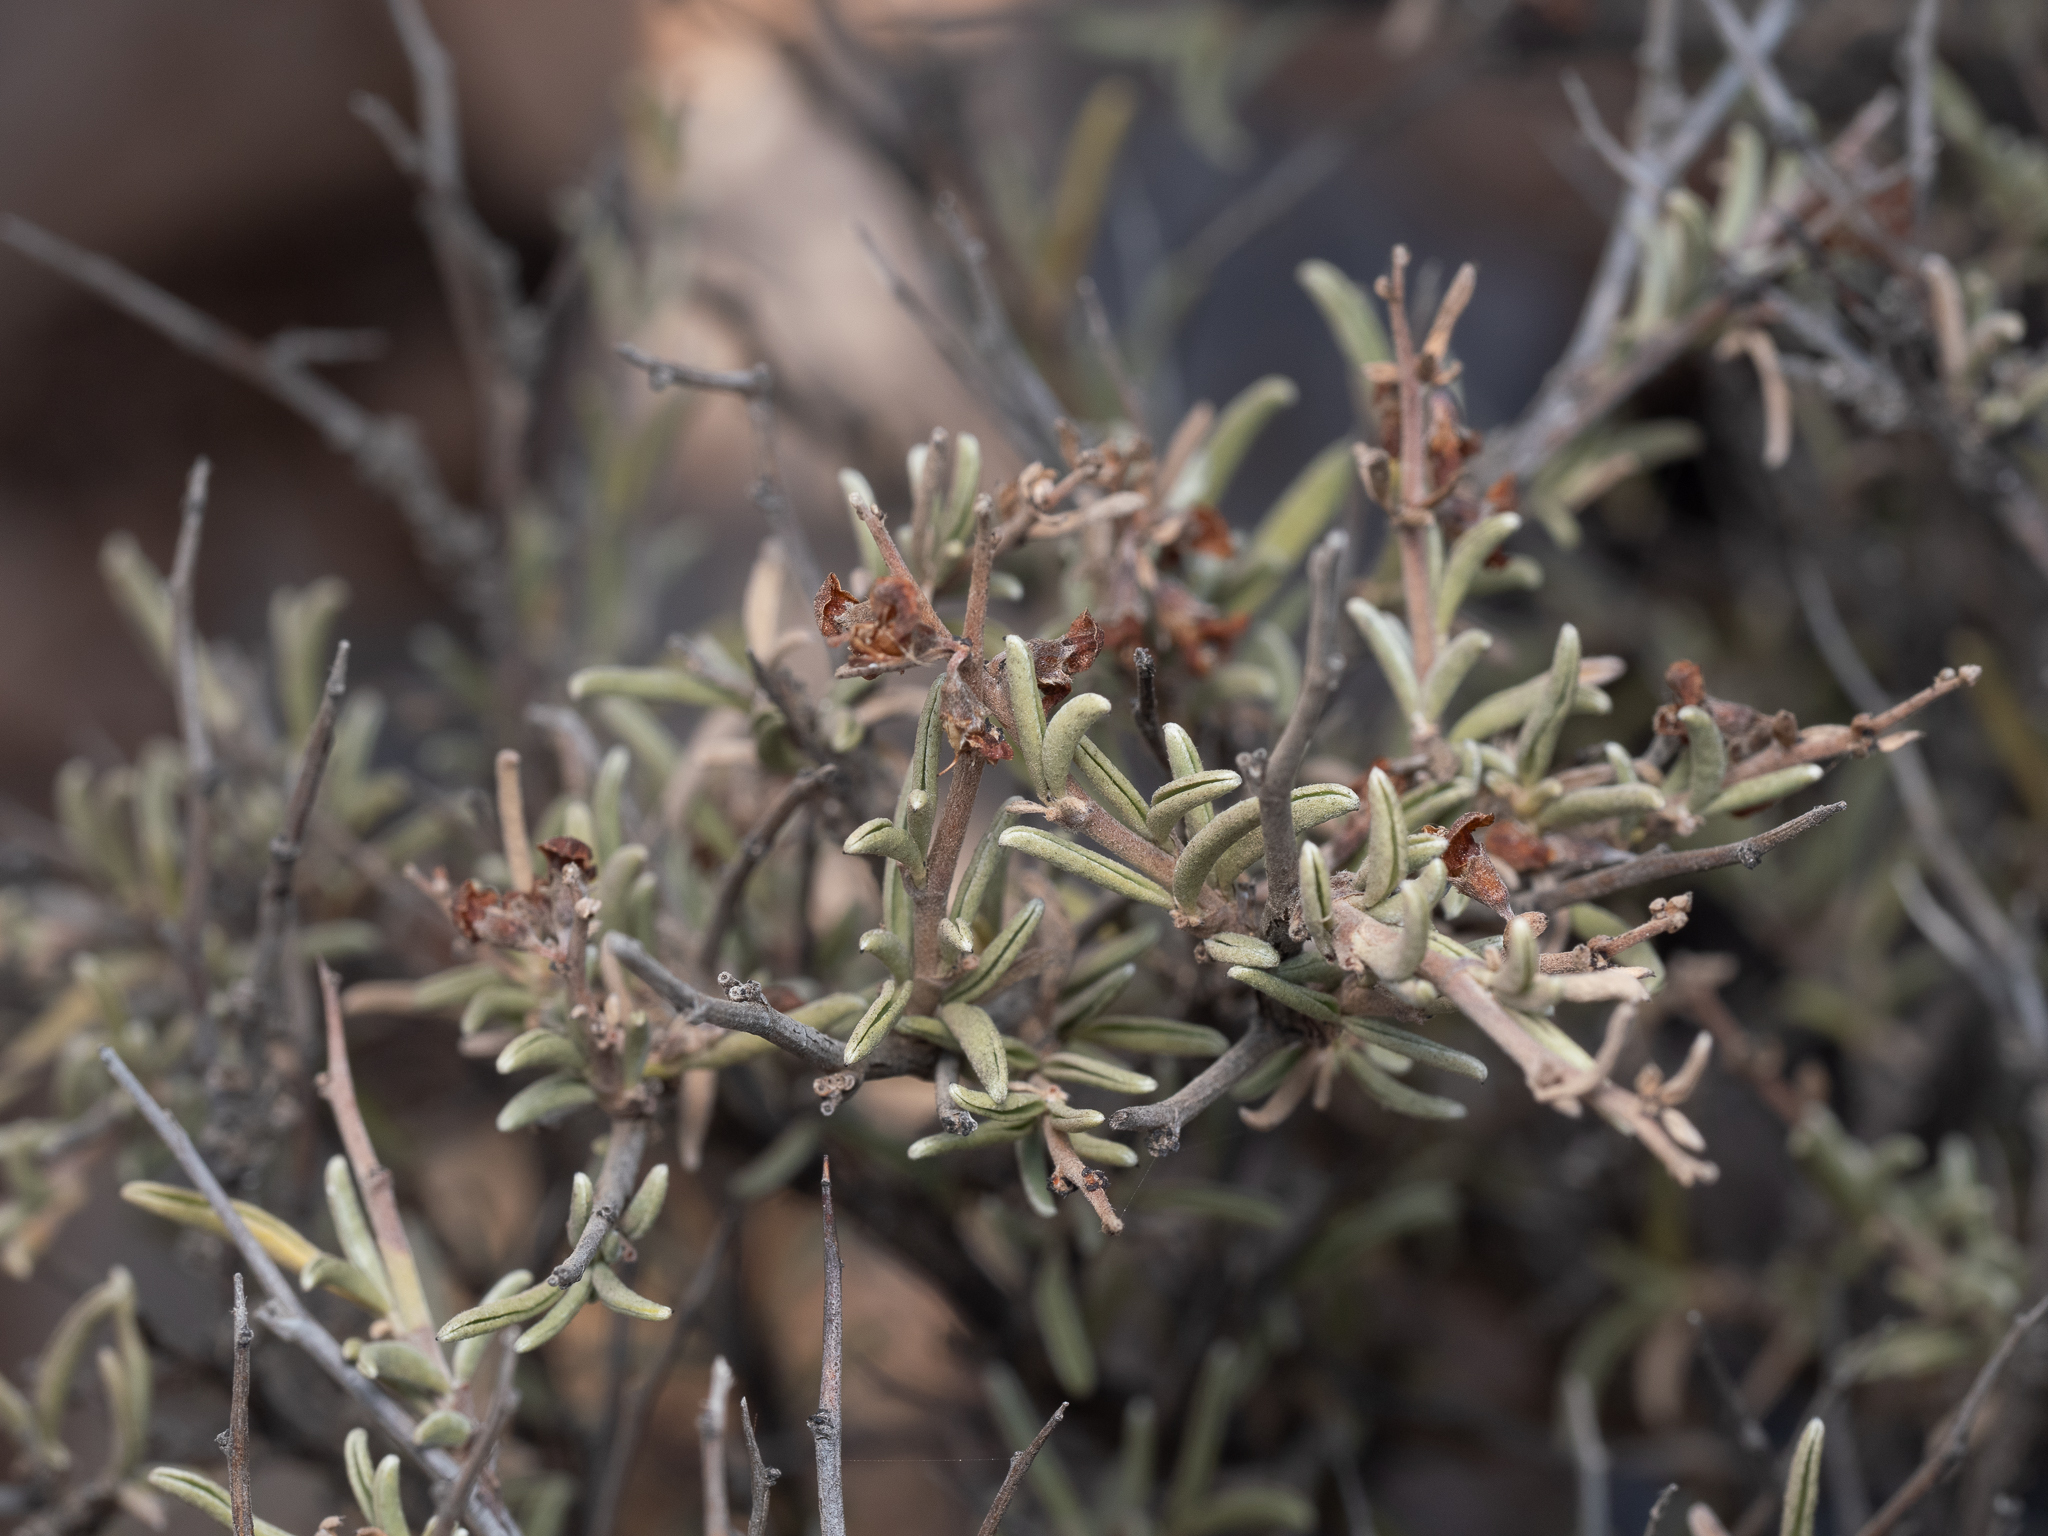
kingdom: Plantae
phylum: Tracheophyta
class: Magnoliopsida
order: Lamiales
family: Lamiaceae
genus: Salvia
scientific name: Salvia rosmarinus
